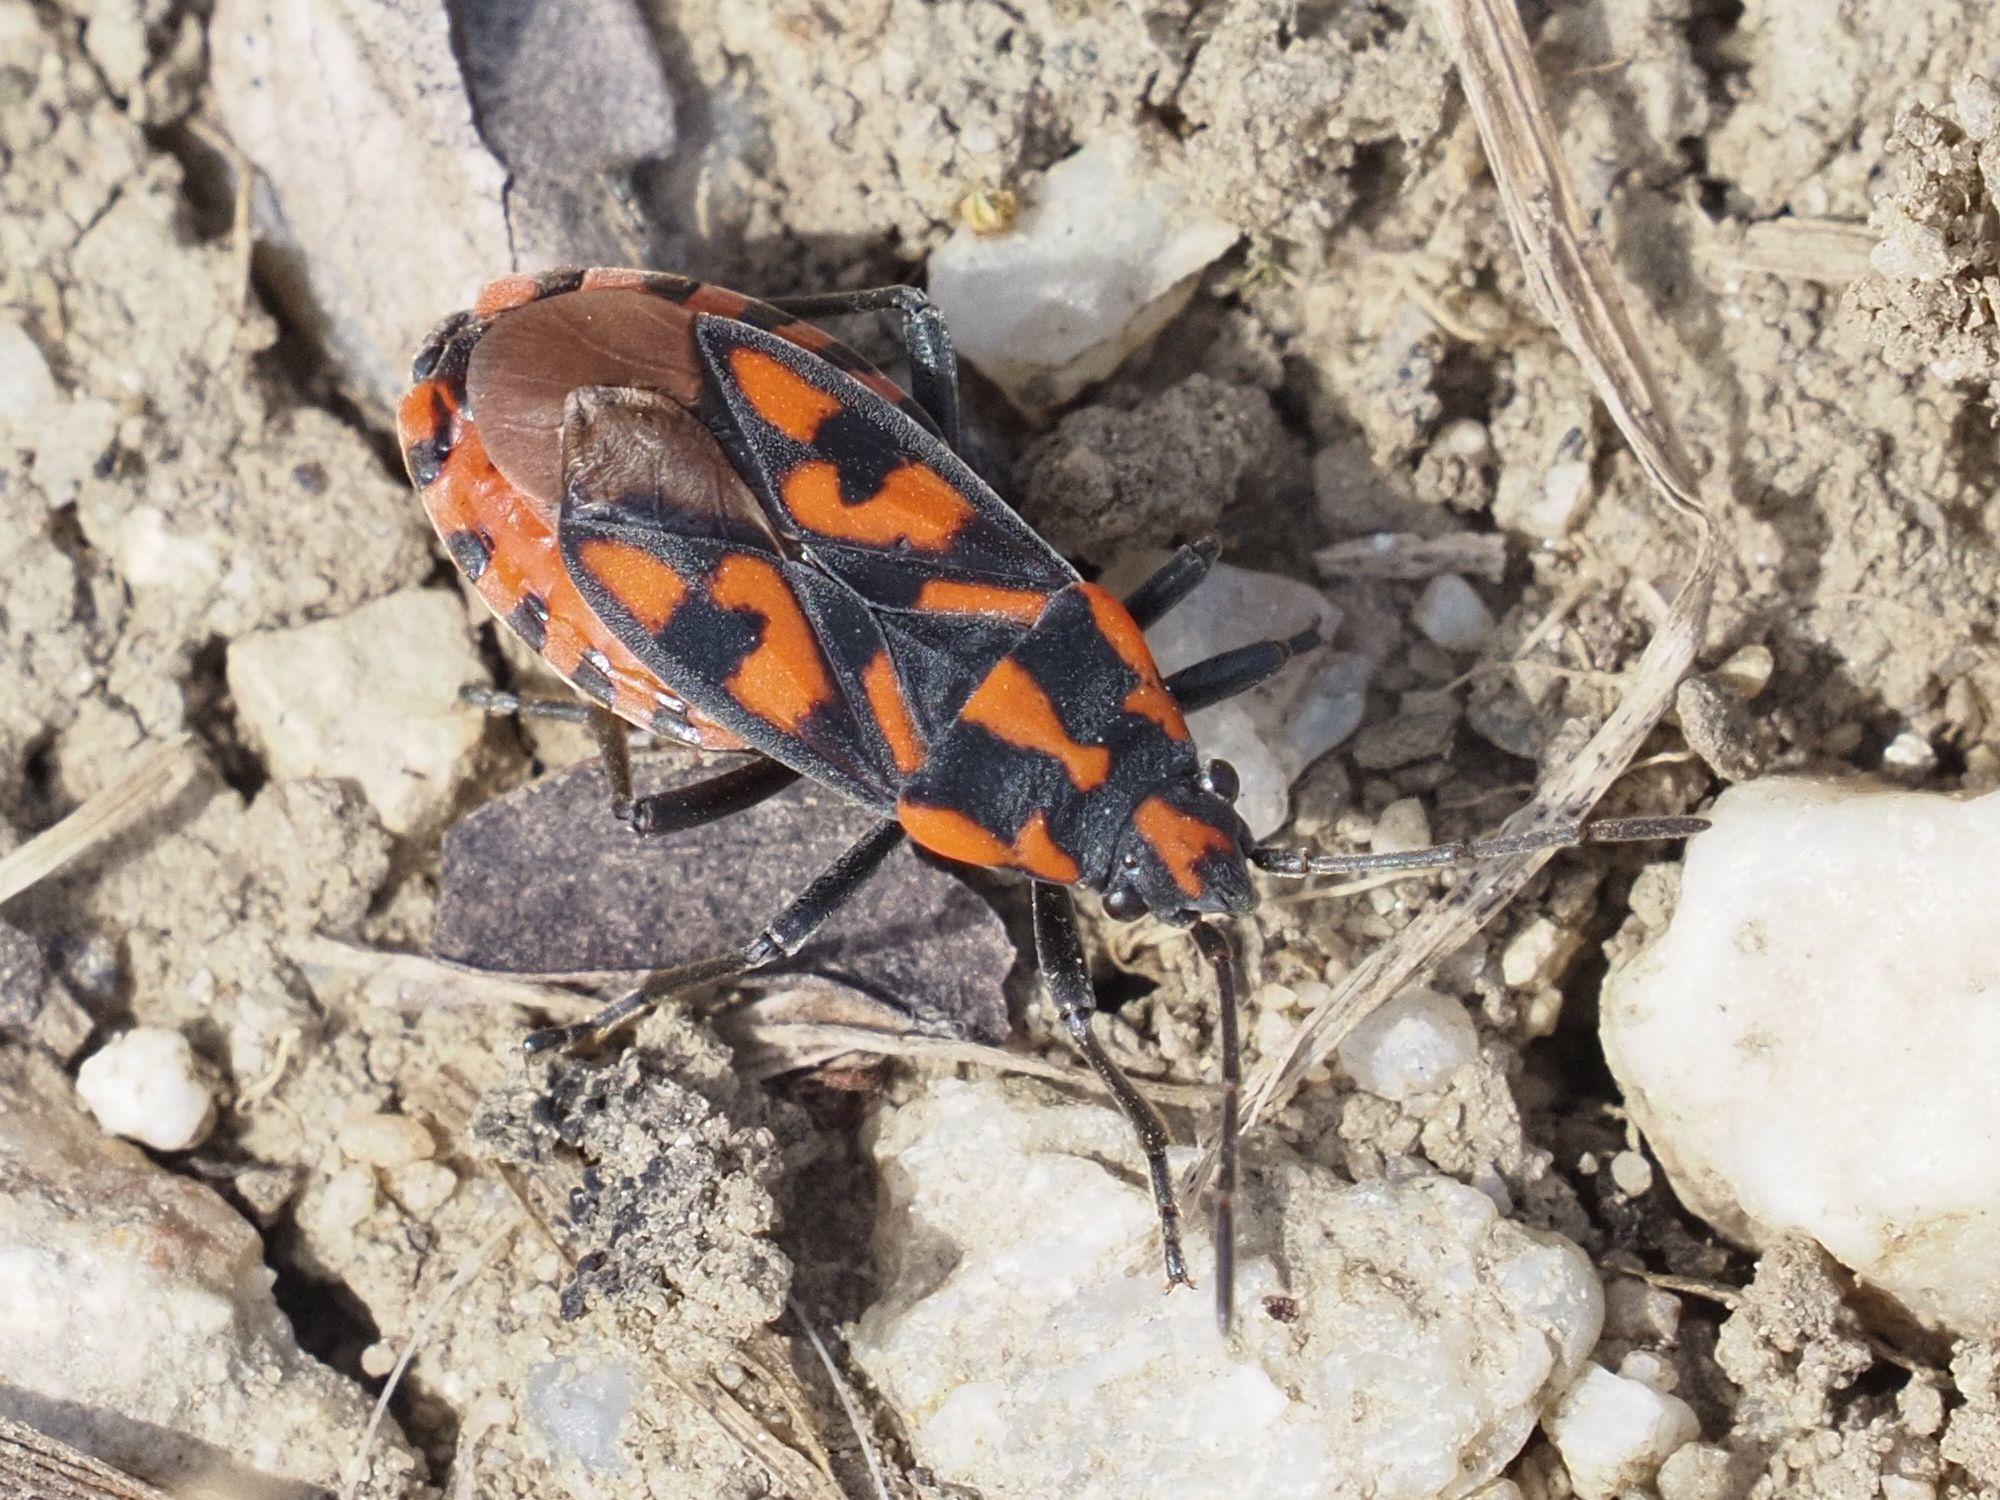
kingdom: Animalia
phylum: Arthropoda
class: Insecta
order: Hemiptera
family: Lygaeidae
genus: Spilostethus
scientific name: Spilostethus saxatilis
